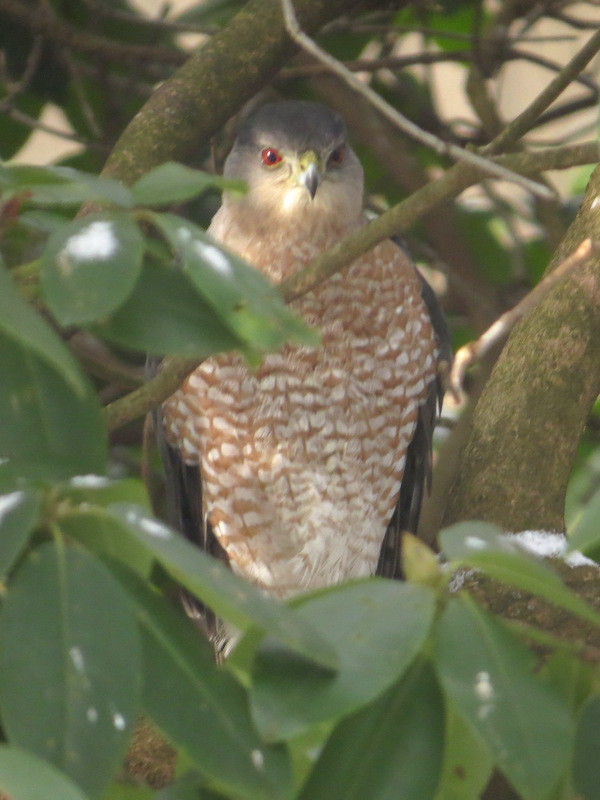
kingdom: Animalia
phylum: Chordata
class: Aves
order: Accipitriformes
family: Accipitridae
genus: Accipiter
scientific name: Accipiter cooperii
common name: Cooper's hawk
